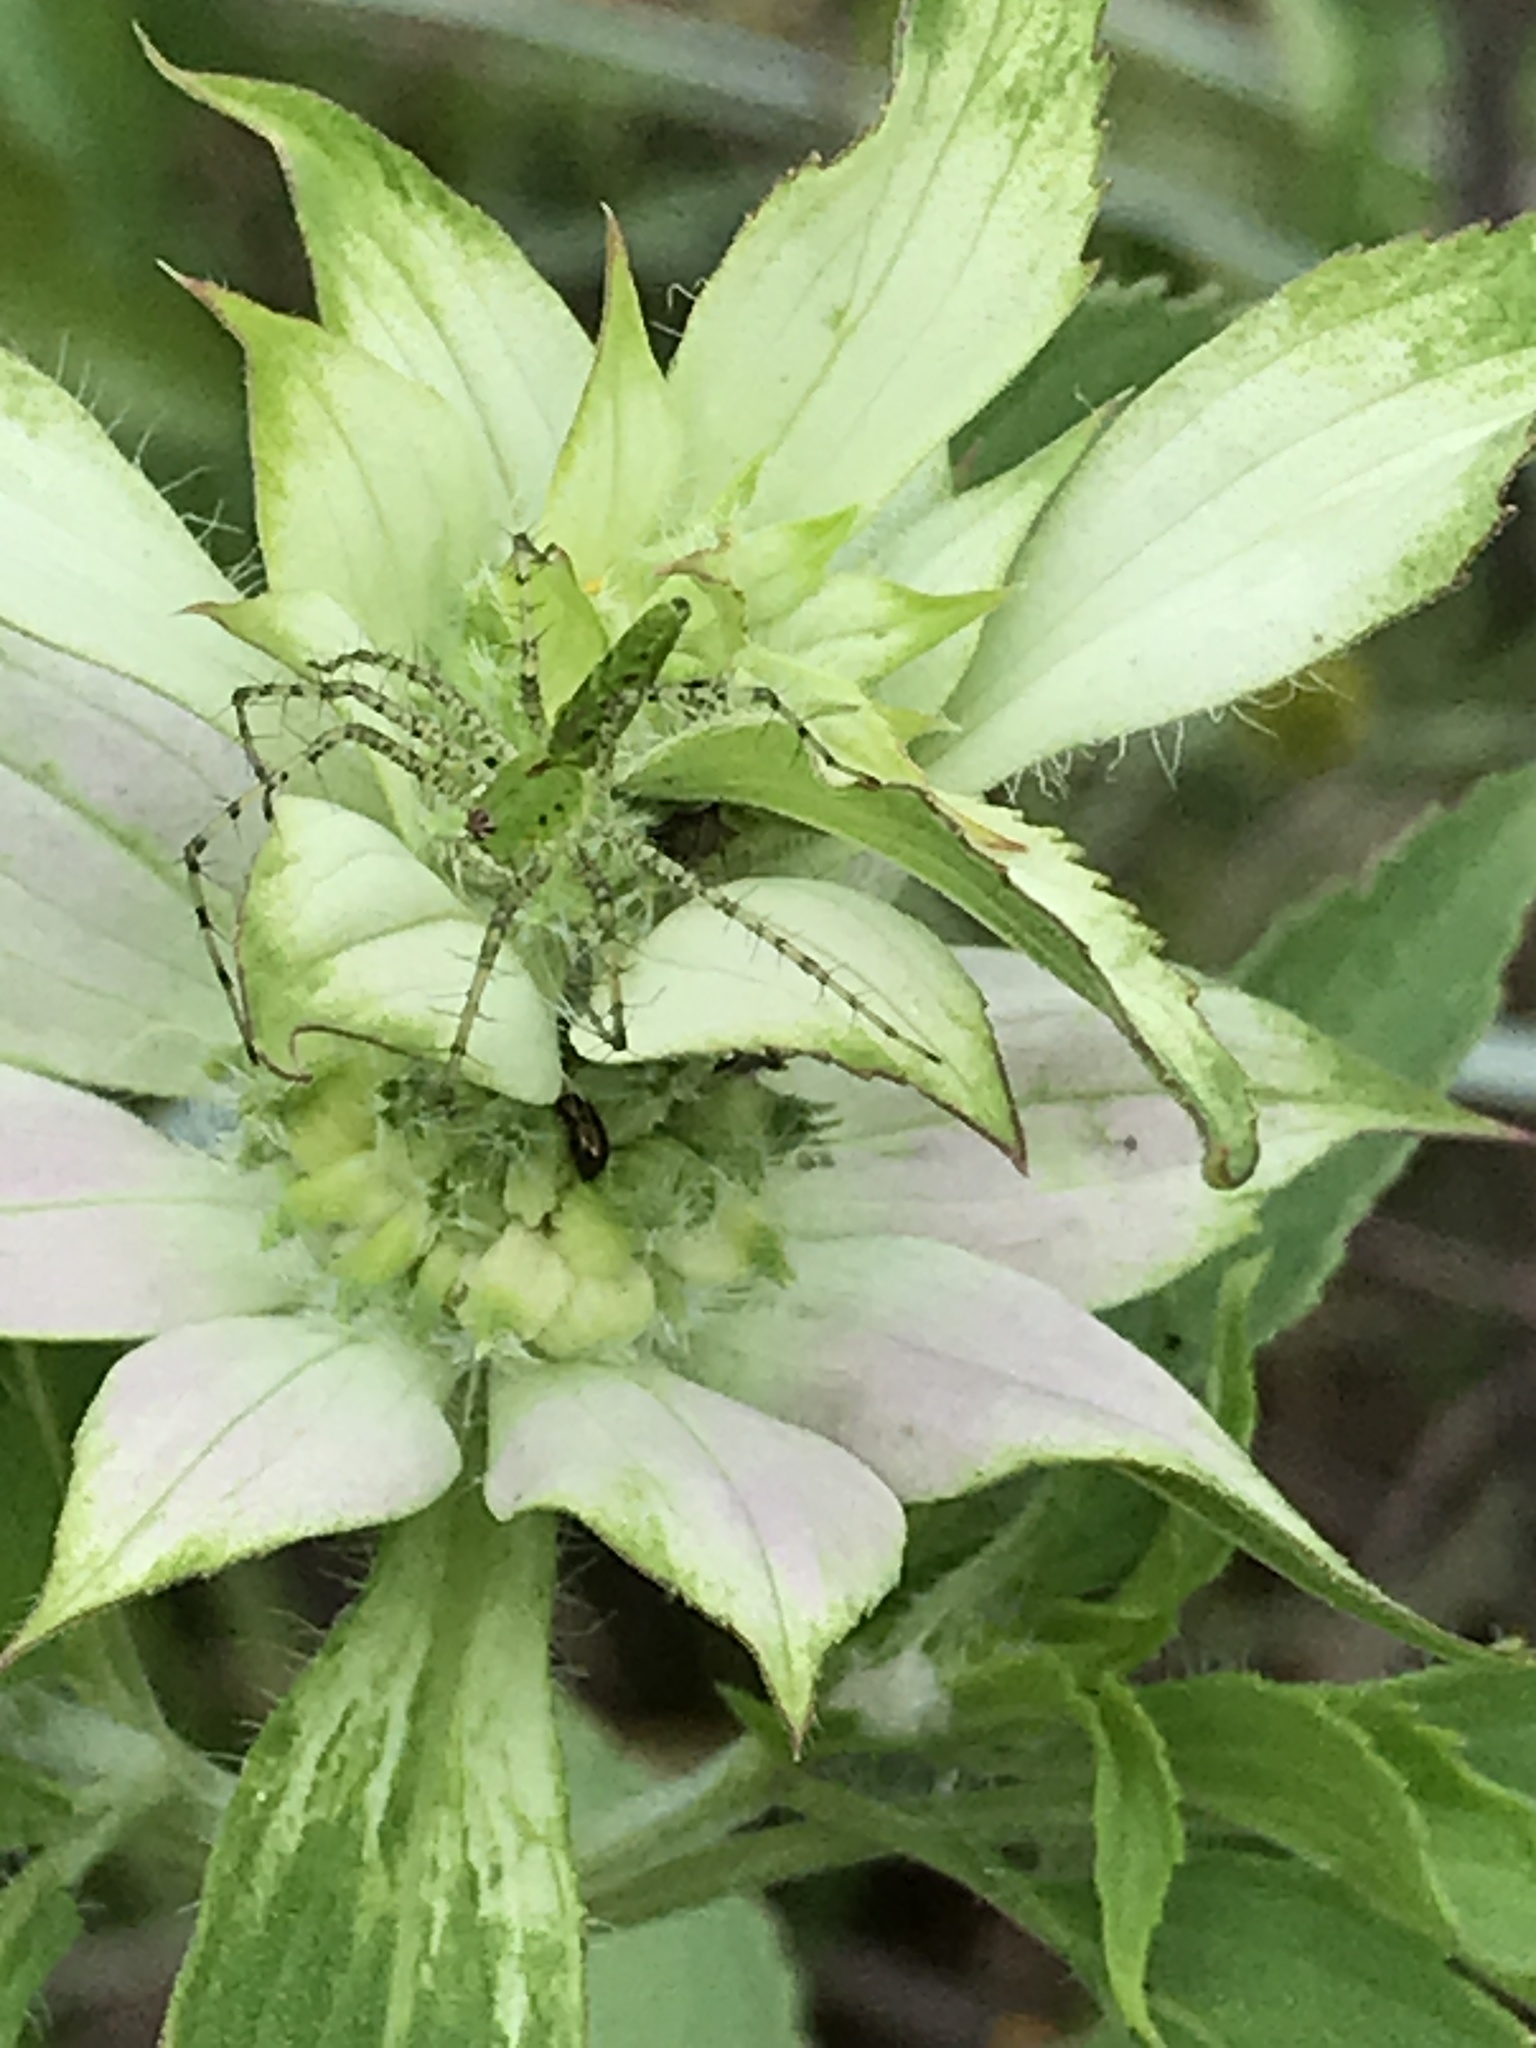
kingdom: Animalia
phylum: Arthropoda
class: Arachnida
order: Araneae
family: Oxyopidae
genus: Peucetia
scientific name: Peucetia viridans
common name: Lynx spiders
